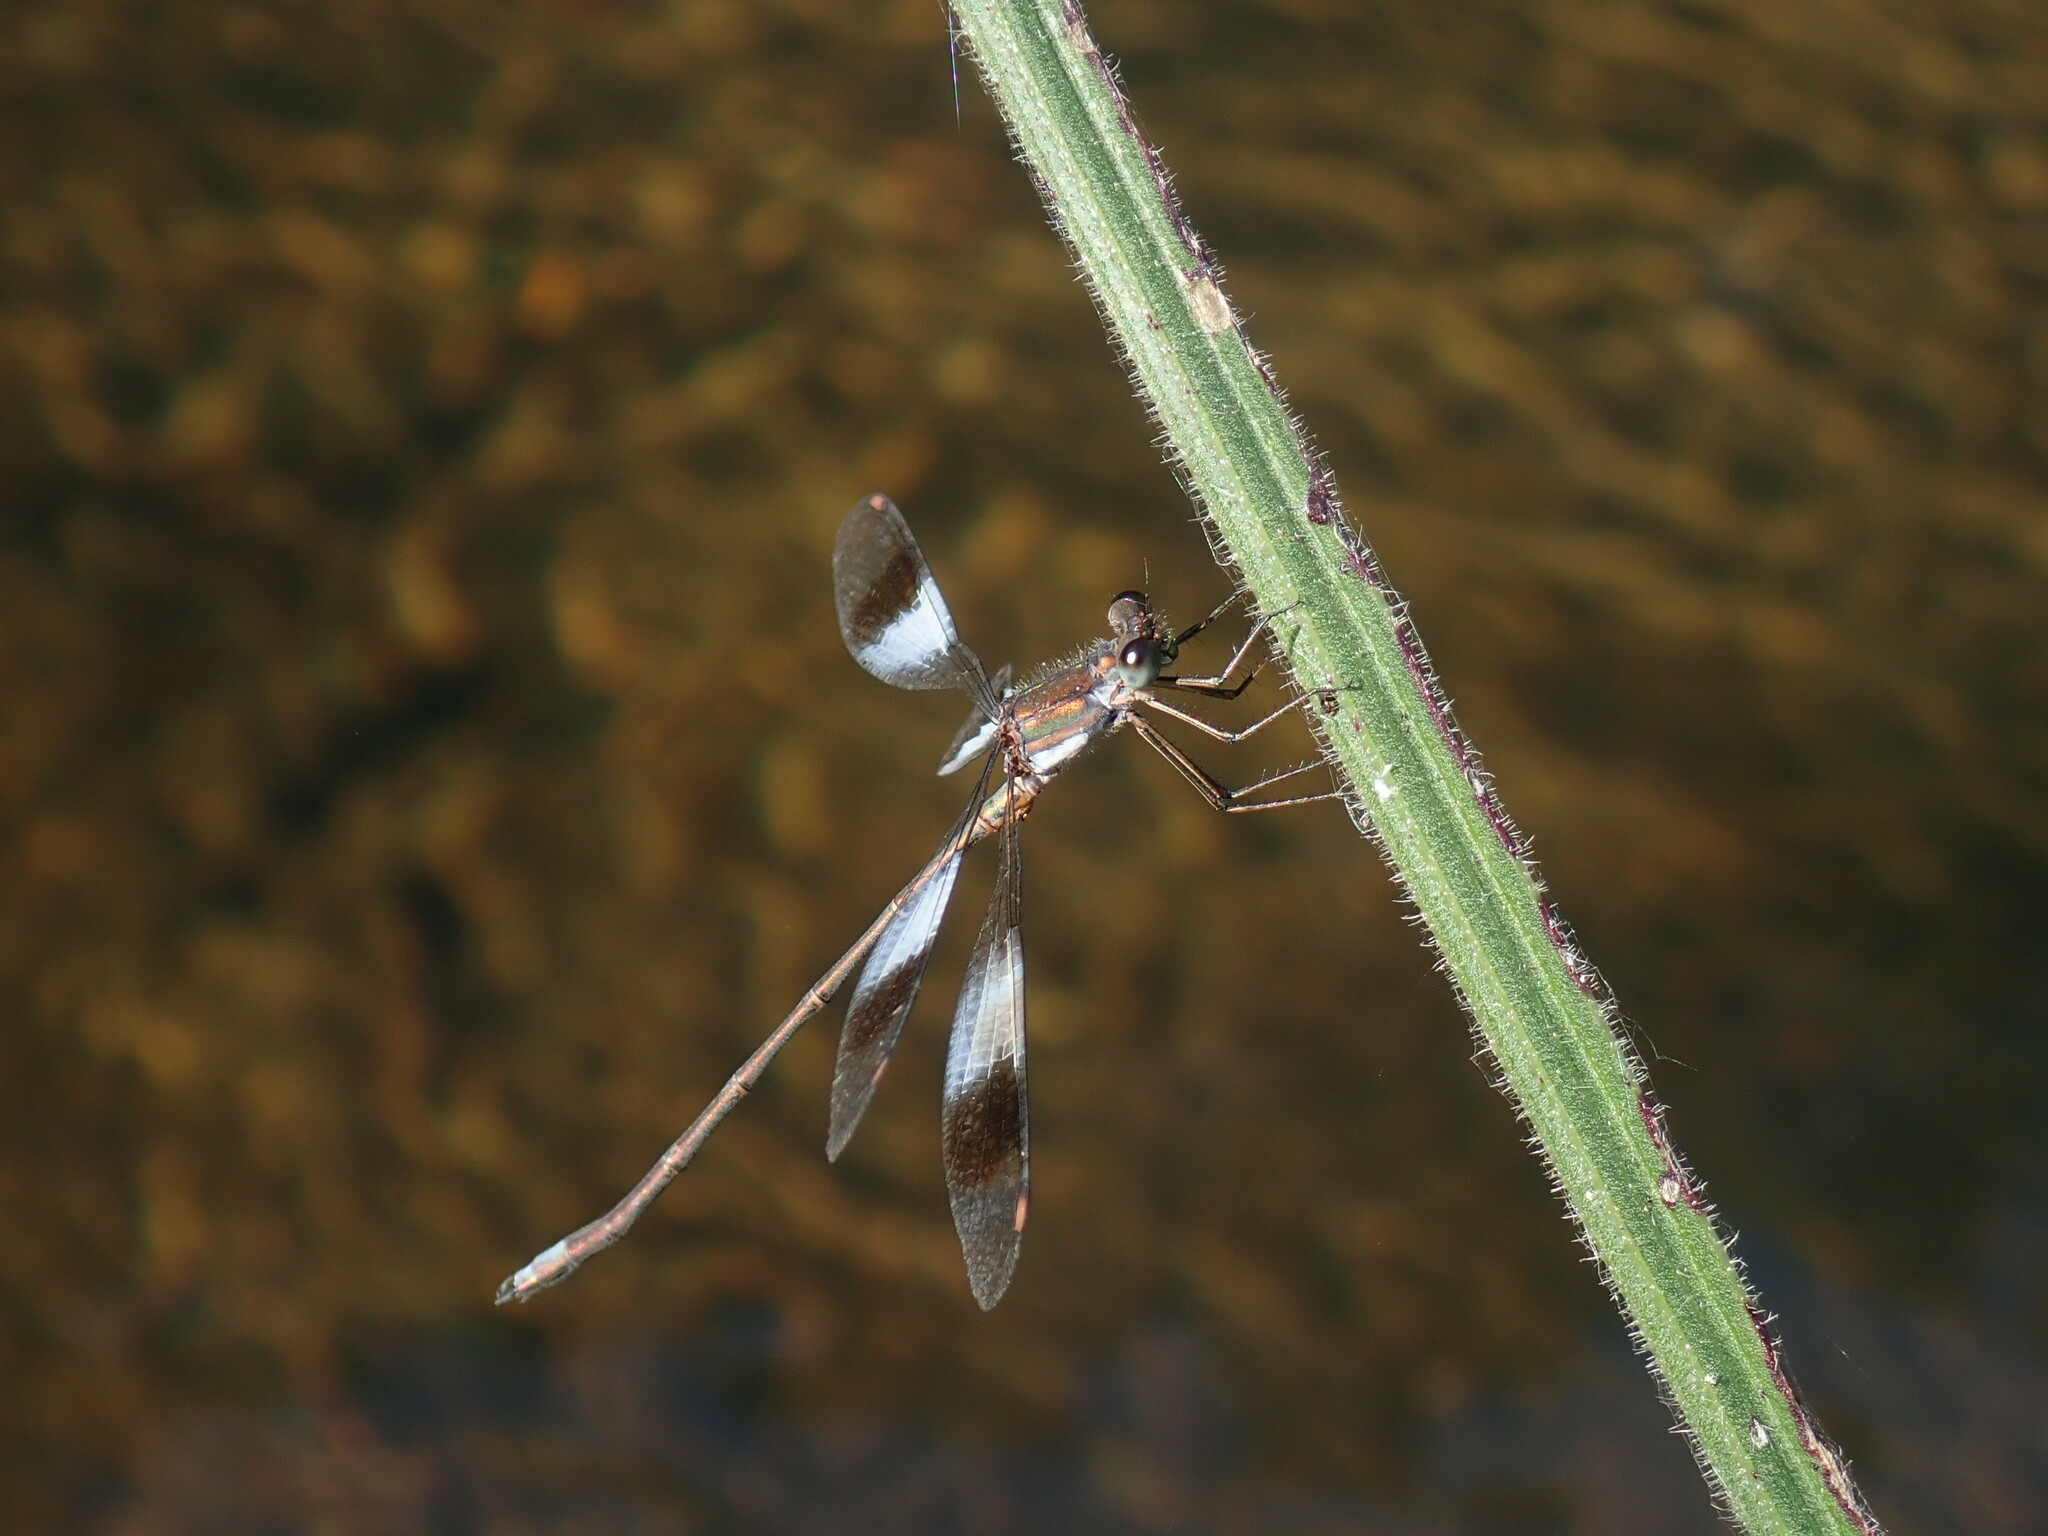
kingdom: Animalia
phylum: Arthropoda
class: Insecta
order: Odonata
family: Synlestidae
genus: Chlorolestes
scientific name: Chlorolestes fasciatus
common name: Mountain malachite
